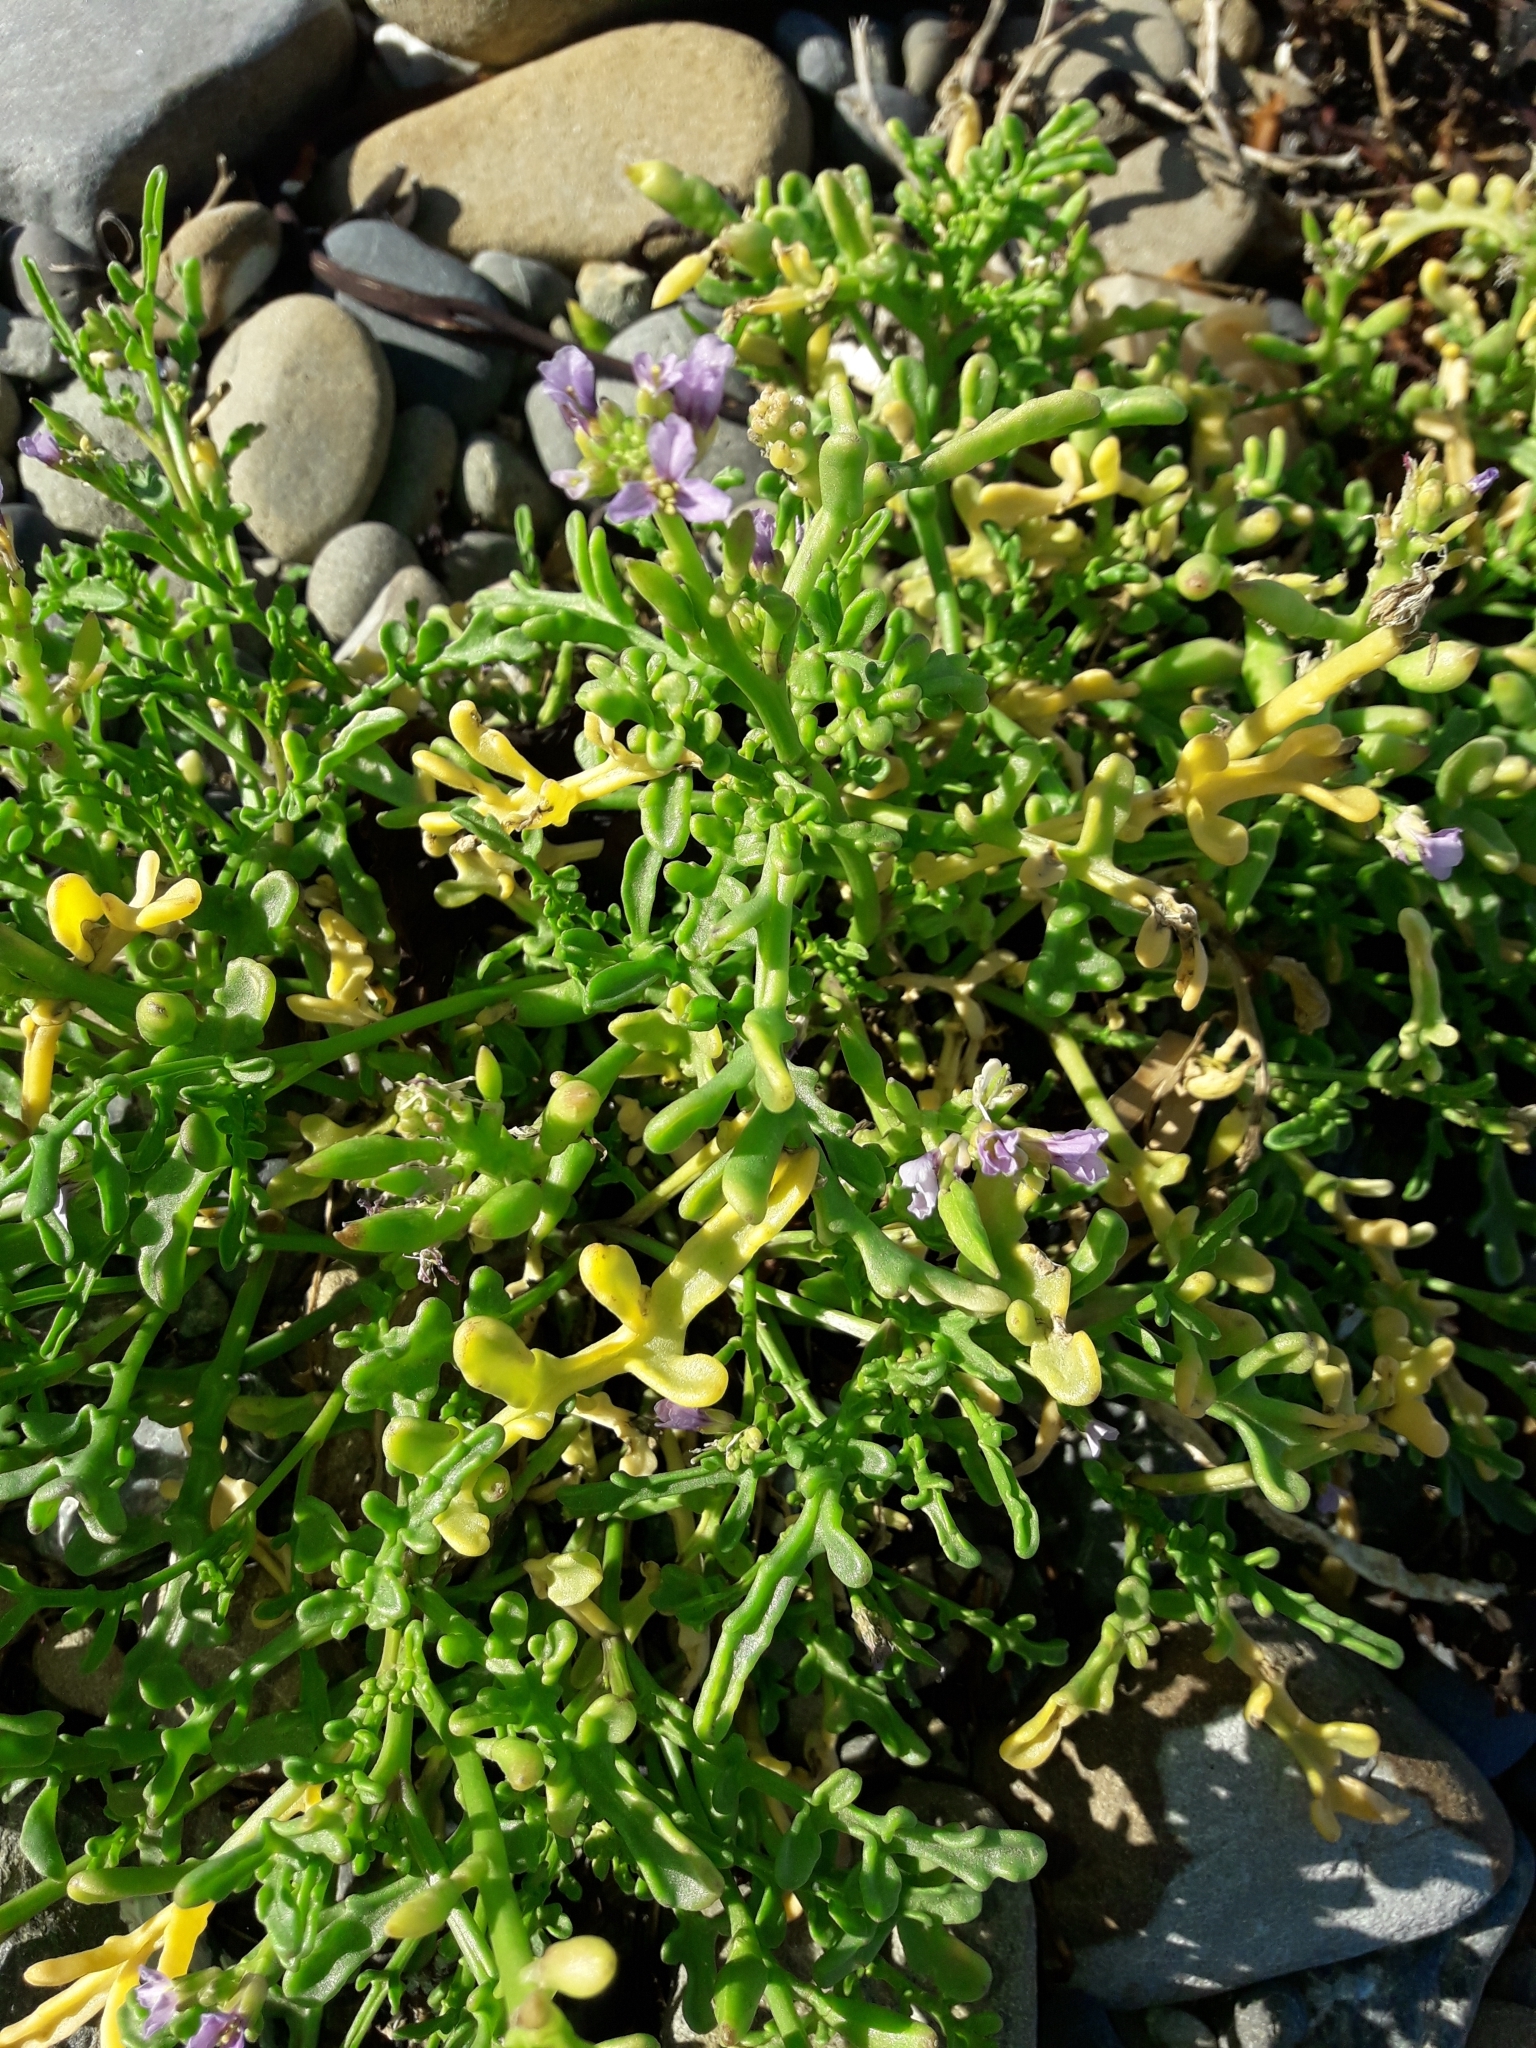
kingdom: Plantae
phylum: Tracheophyta
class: Magnoliopsida
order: Brassicales
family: Brassicaceae
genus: Cakile
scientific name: Cakile maritima
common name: Sea rocket
